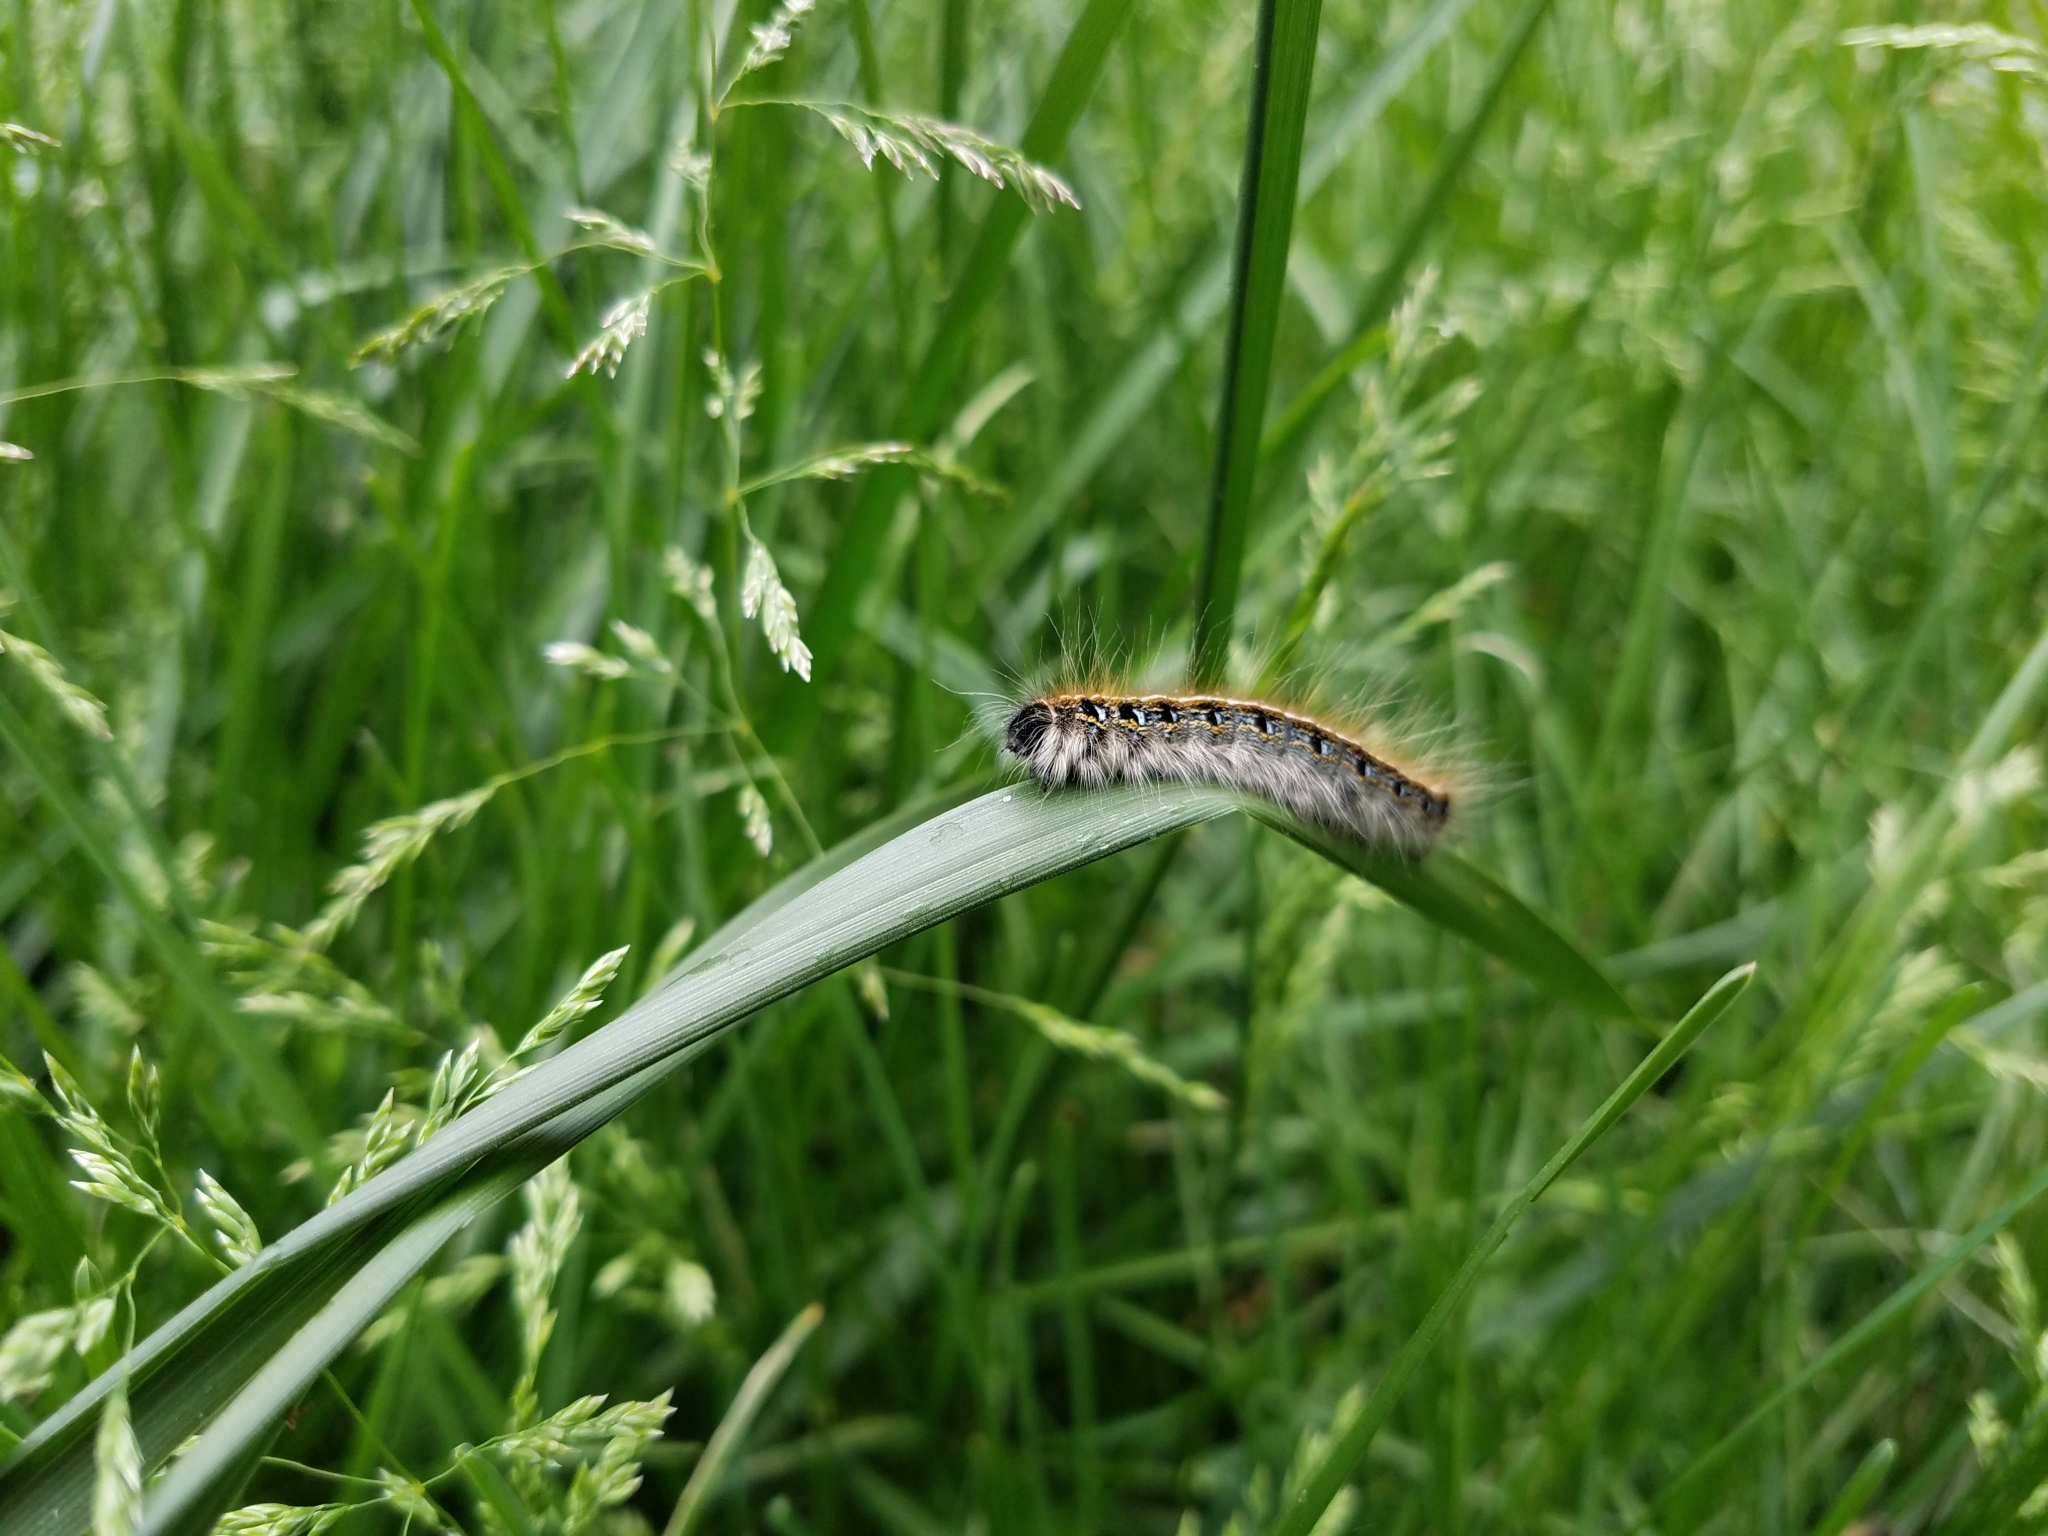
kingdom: Animalia
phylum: Arthropoda
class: Insecta
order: Lepidoptera
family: Lasiocampidae
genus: Malacosoma
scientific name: Malacosoma americana
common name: Eastern tent caterpillar moth
